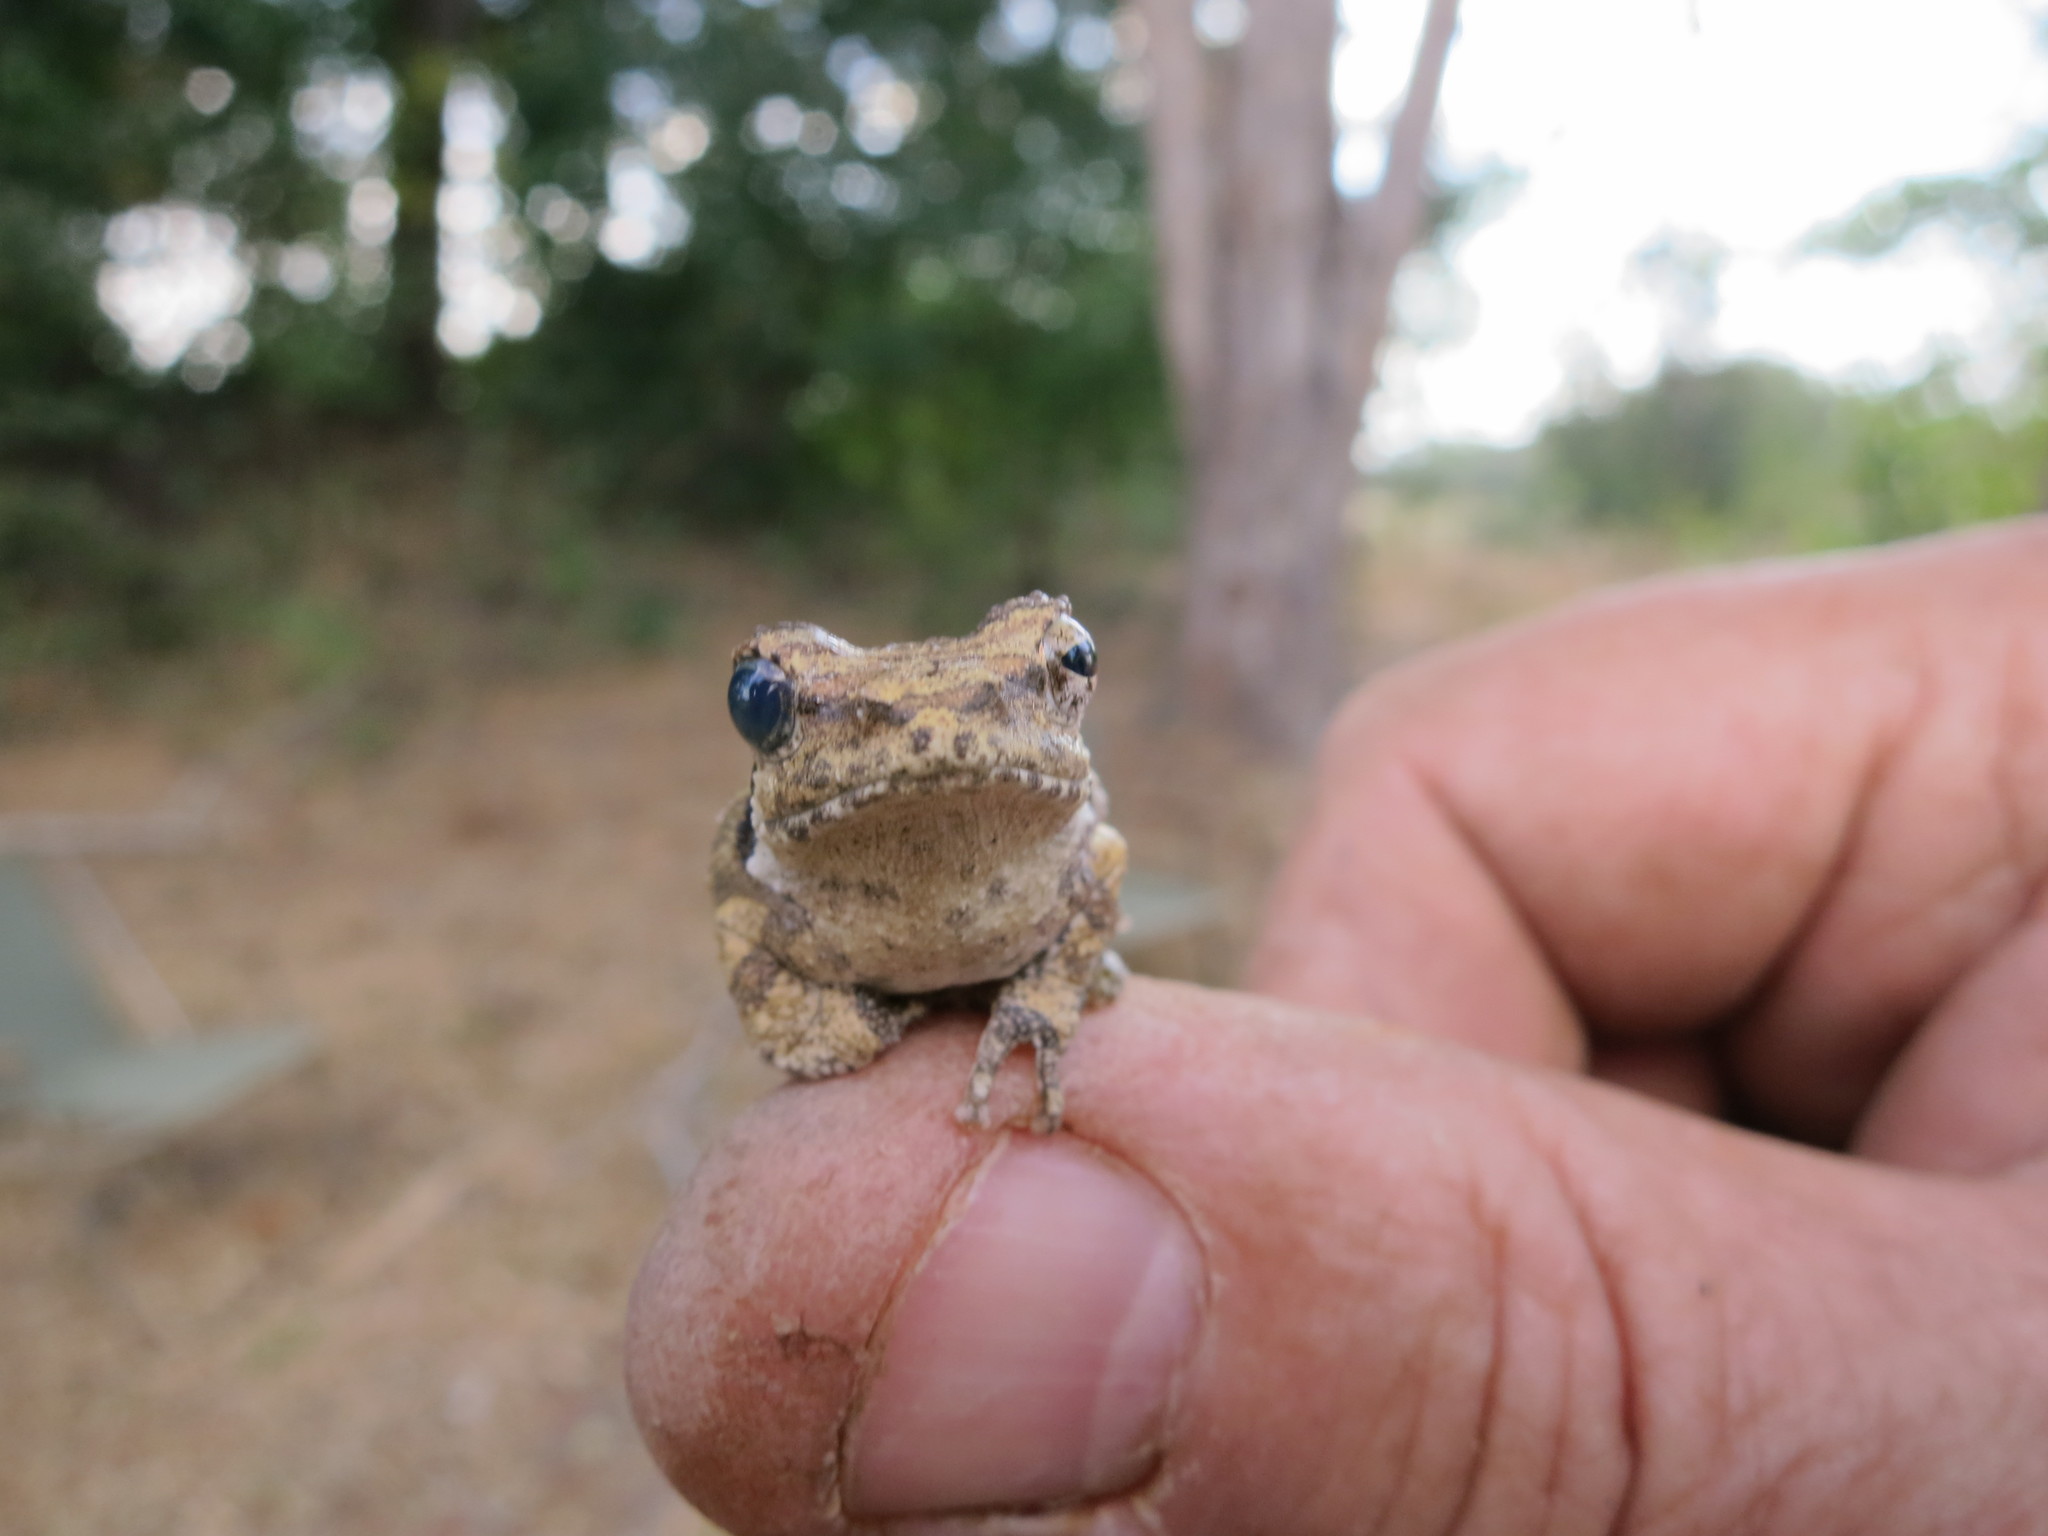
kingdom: Animalia
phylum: Chordata
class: Amphibia
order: Anura
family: Rhacophoridae
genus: Chiromantis
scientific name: Chiromantis petersii
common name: Central foam-nest tree frog
